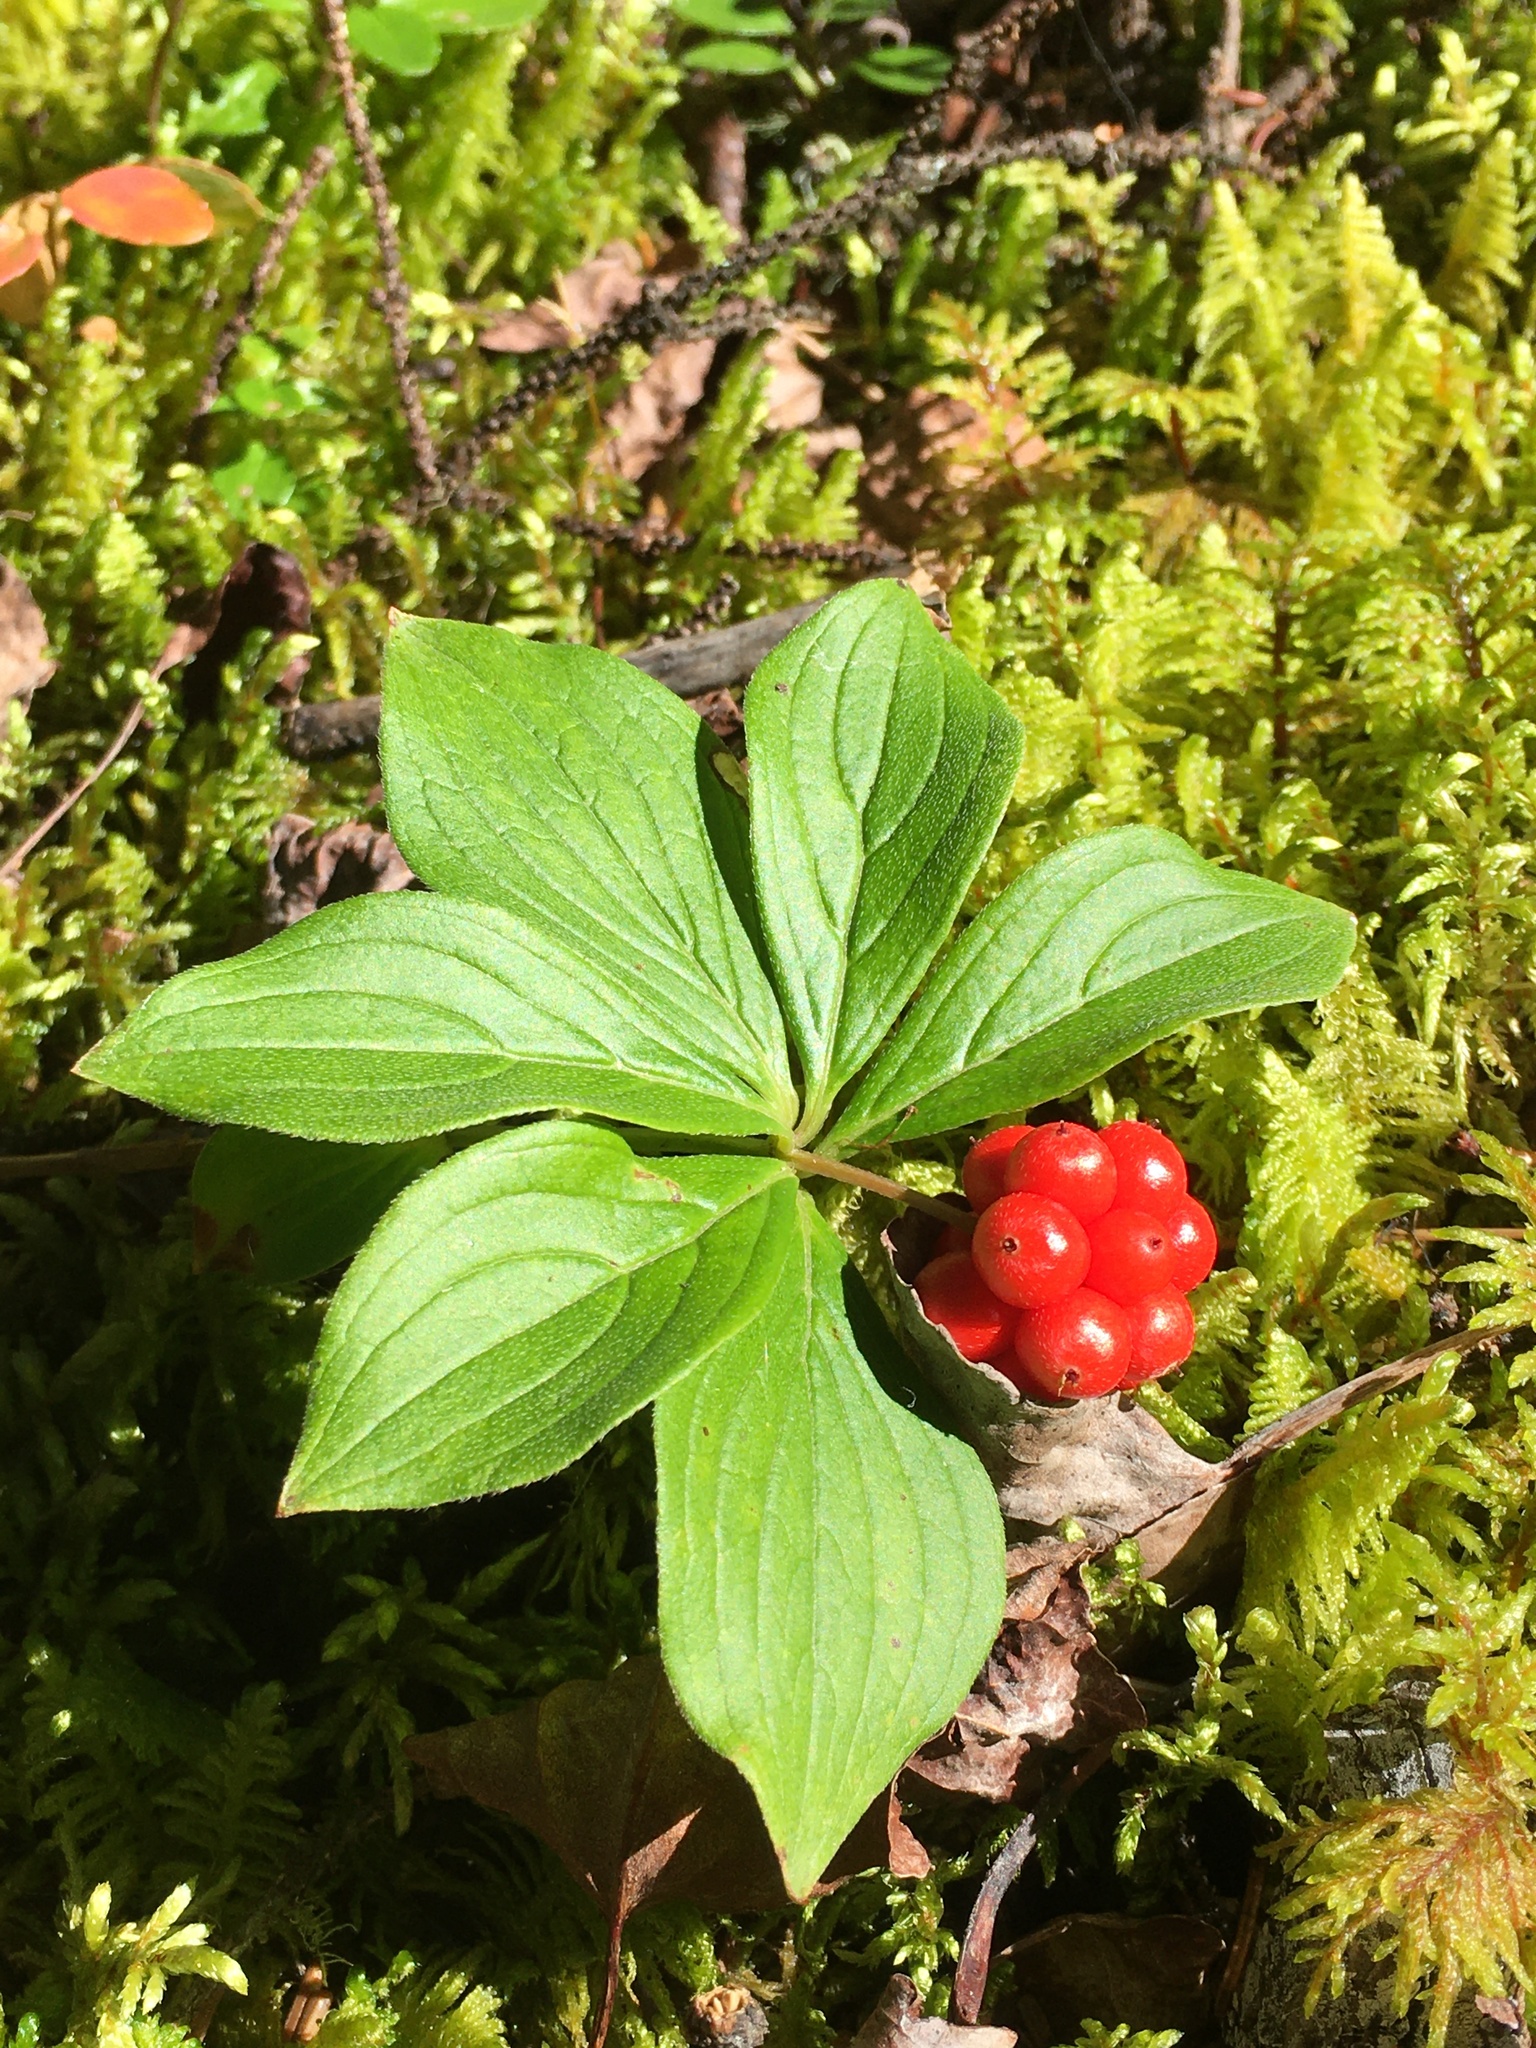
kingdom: Plantae
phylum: Tracheophyta
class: Magnoliopsida
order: Cornales
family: Cornaceae
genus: Cornus
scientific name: Cornus canadensis
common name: Creeping dogwood
